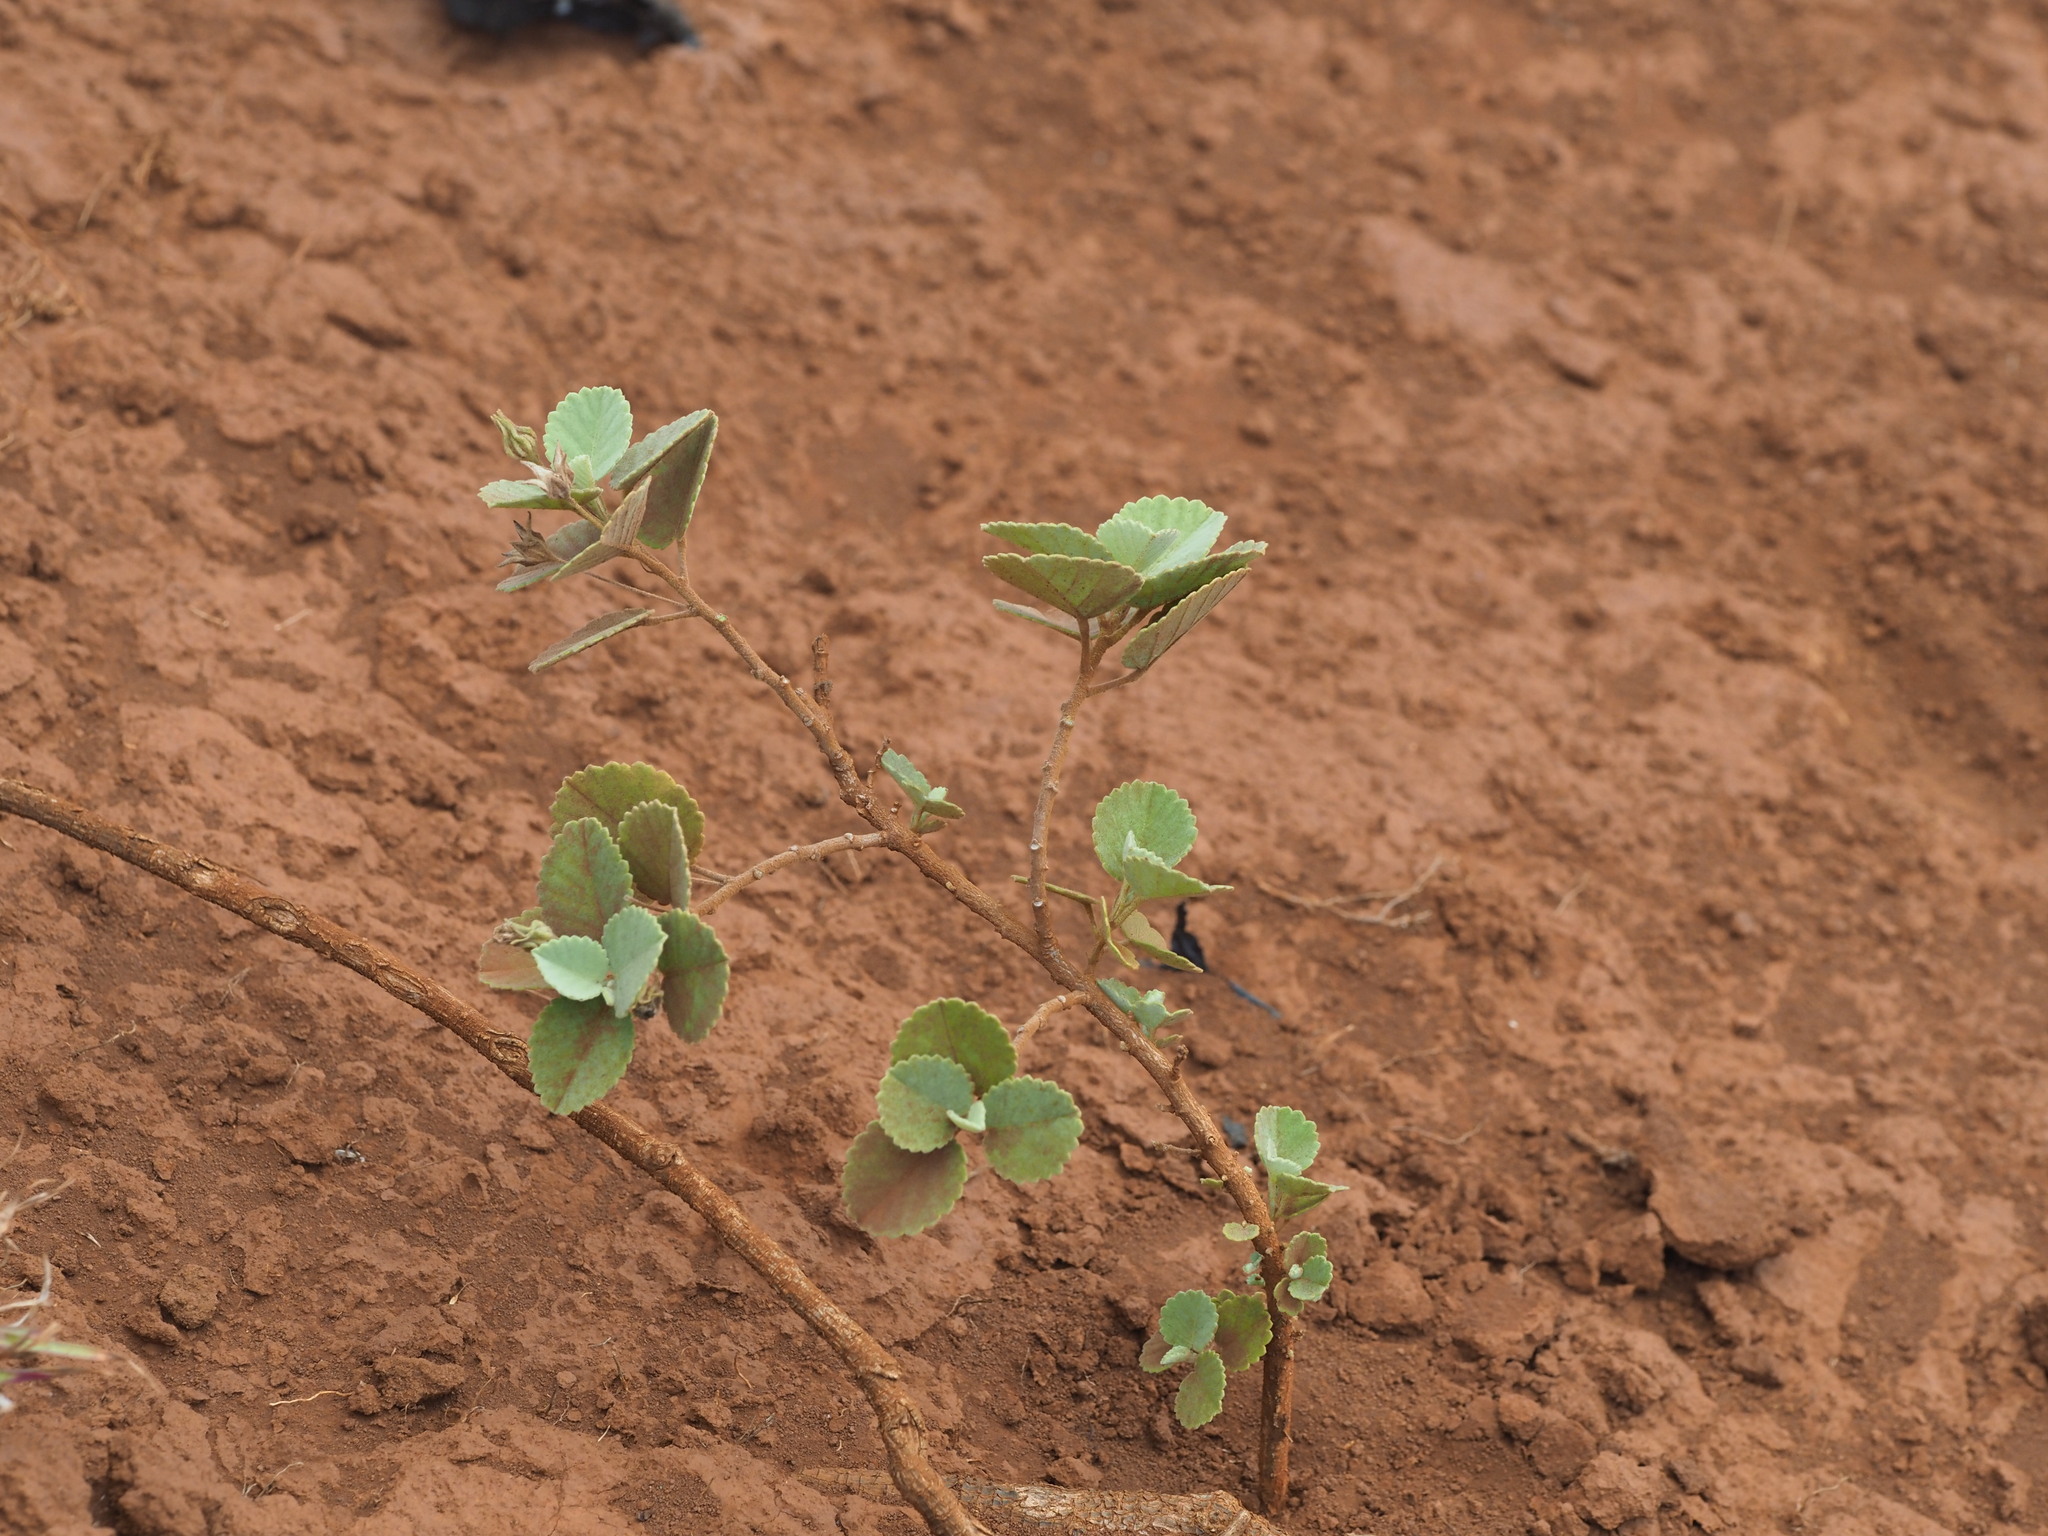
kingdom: Plantae
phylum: Tracheophyta
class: Magnoliopsida
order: Malvales
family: Malvaceae
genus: Sida
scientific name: Sida fallax
